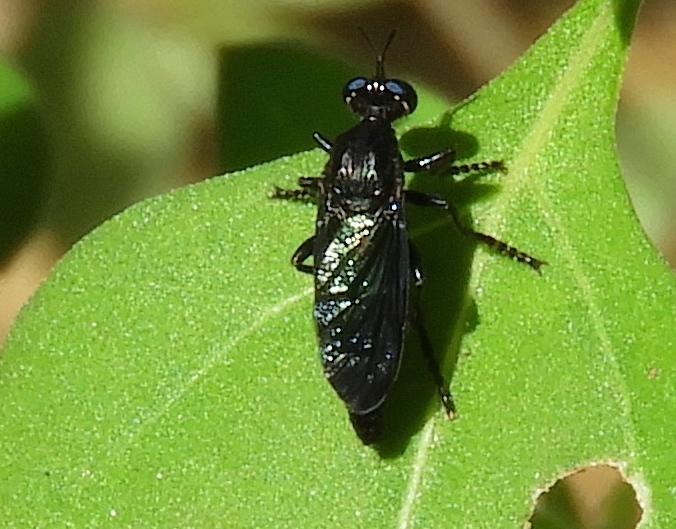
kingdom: Animalia
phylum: Arthropoda
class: Insecta
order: Diptera
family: Asilidae
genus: Saropogon
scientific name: Saropogon
